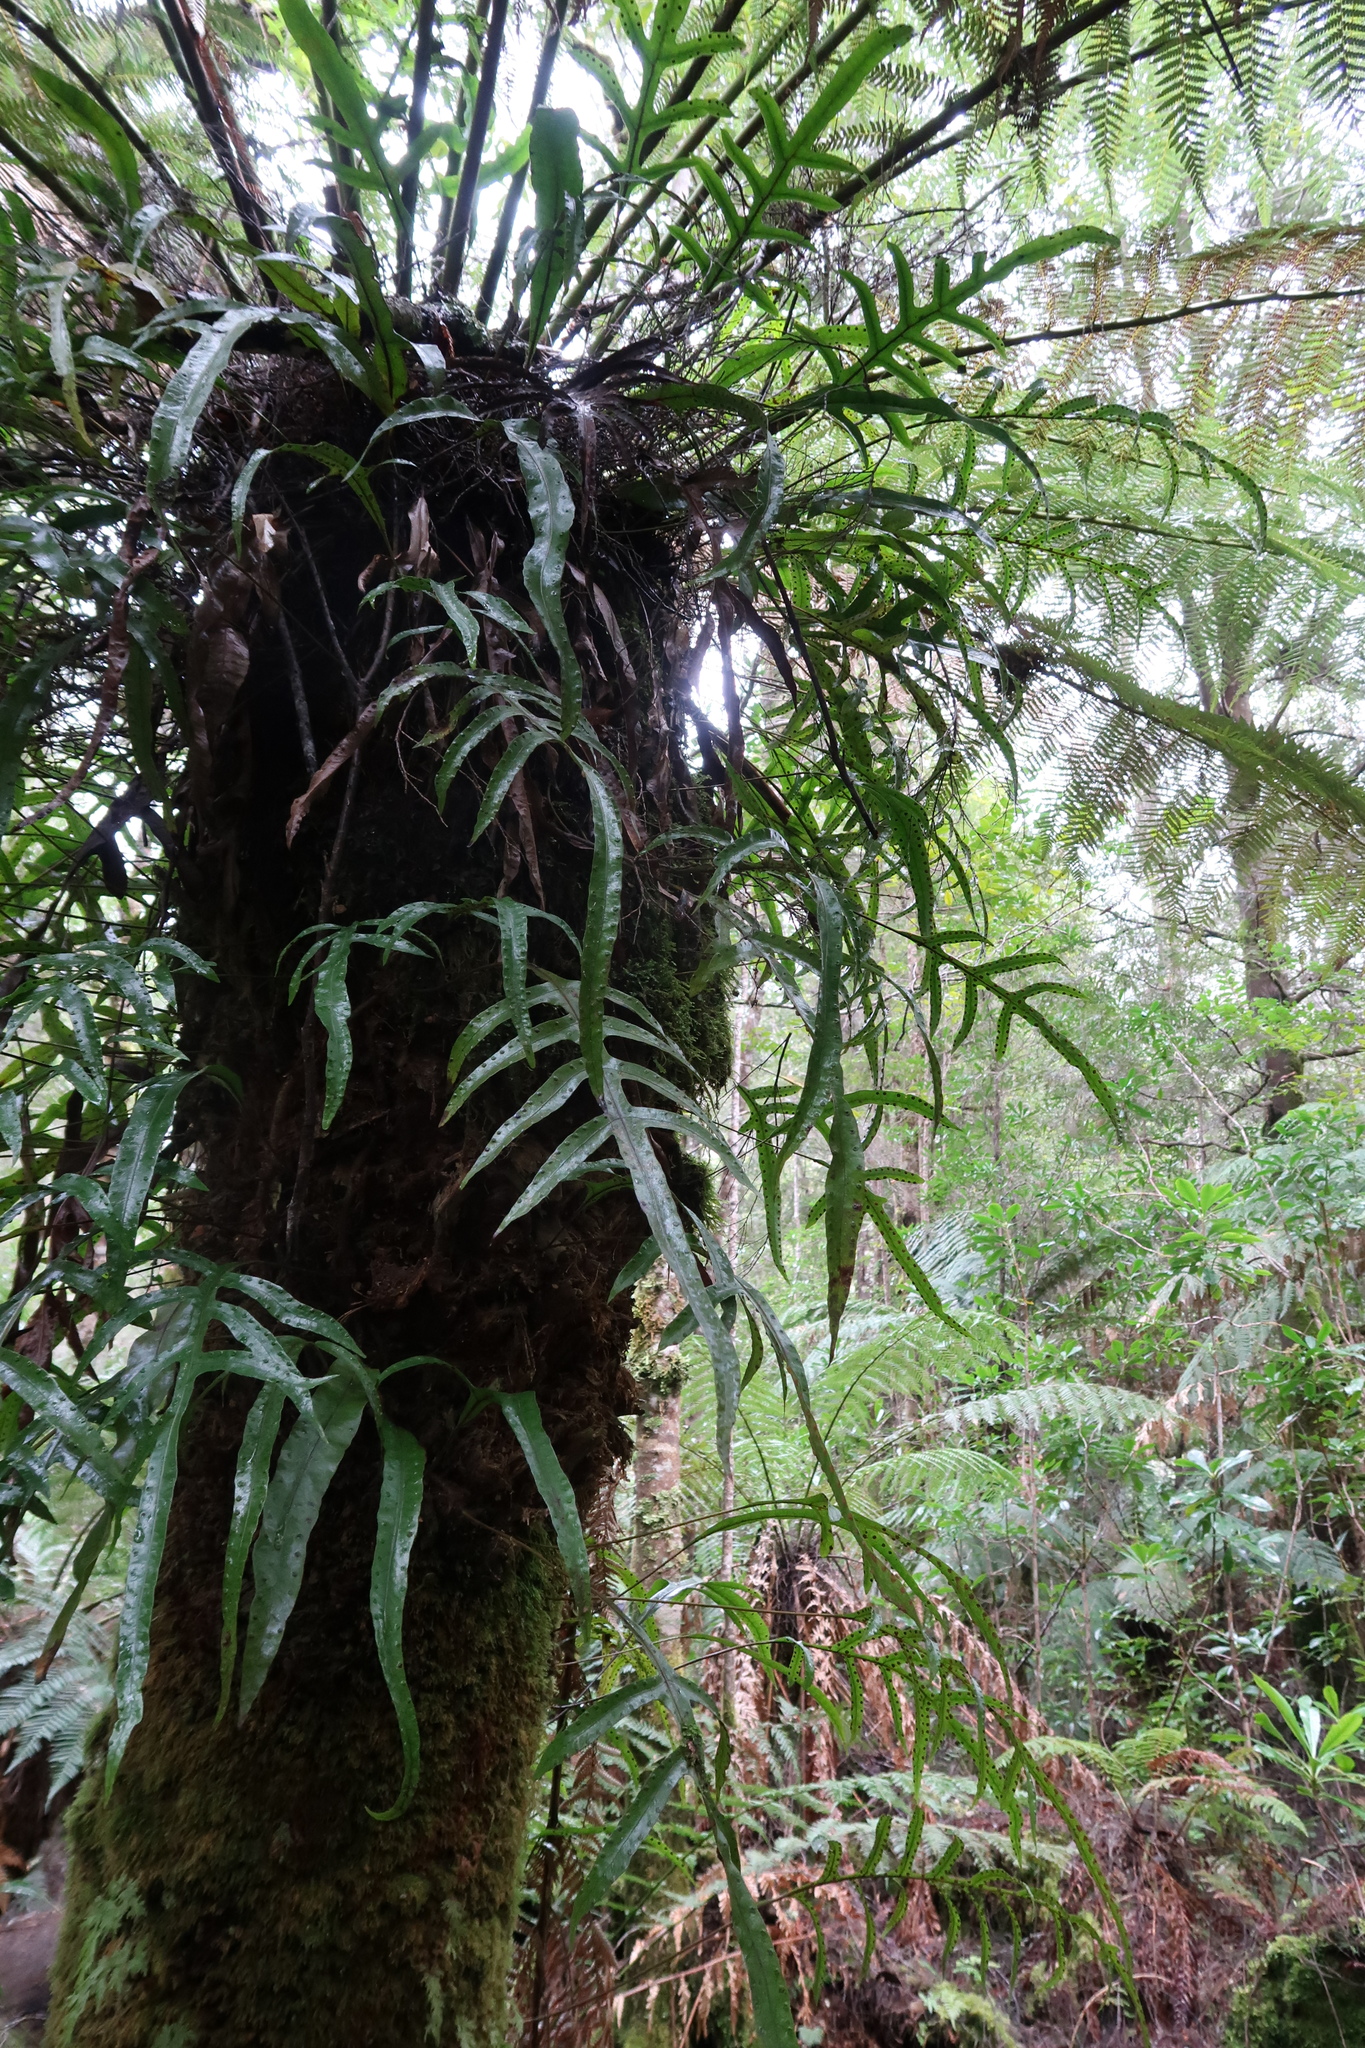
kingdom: Plantae
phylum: Tracheophyta
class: Polypodiopsida
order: Polypodiales
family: Polypodiaceae
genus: Lecanopteris
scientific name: Lecanopteris pustulata
